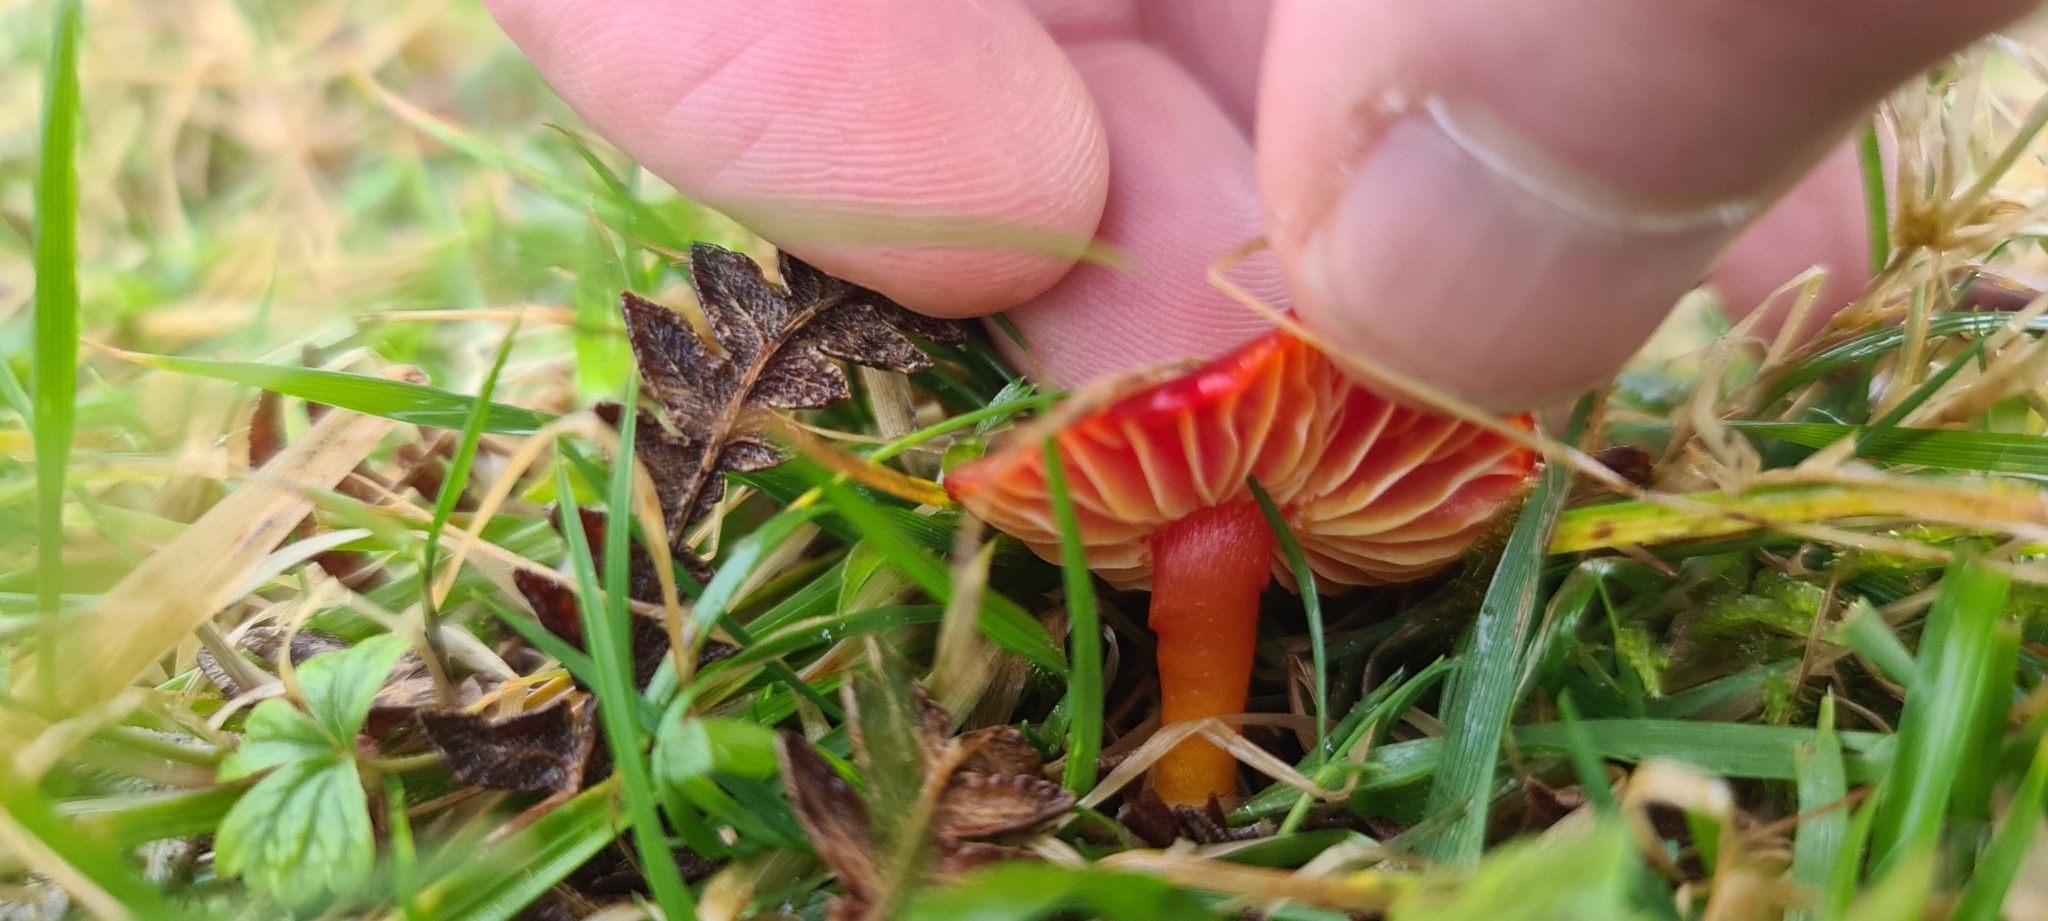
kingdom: Fungi
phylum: Basidiomycota
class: Agaricomycetes
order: Agaricales
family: Hygrophoraceae
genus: Hygrocybe
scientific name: Hygrocybe coccinea
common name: Scarlet hood
